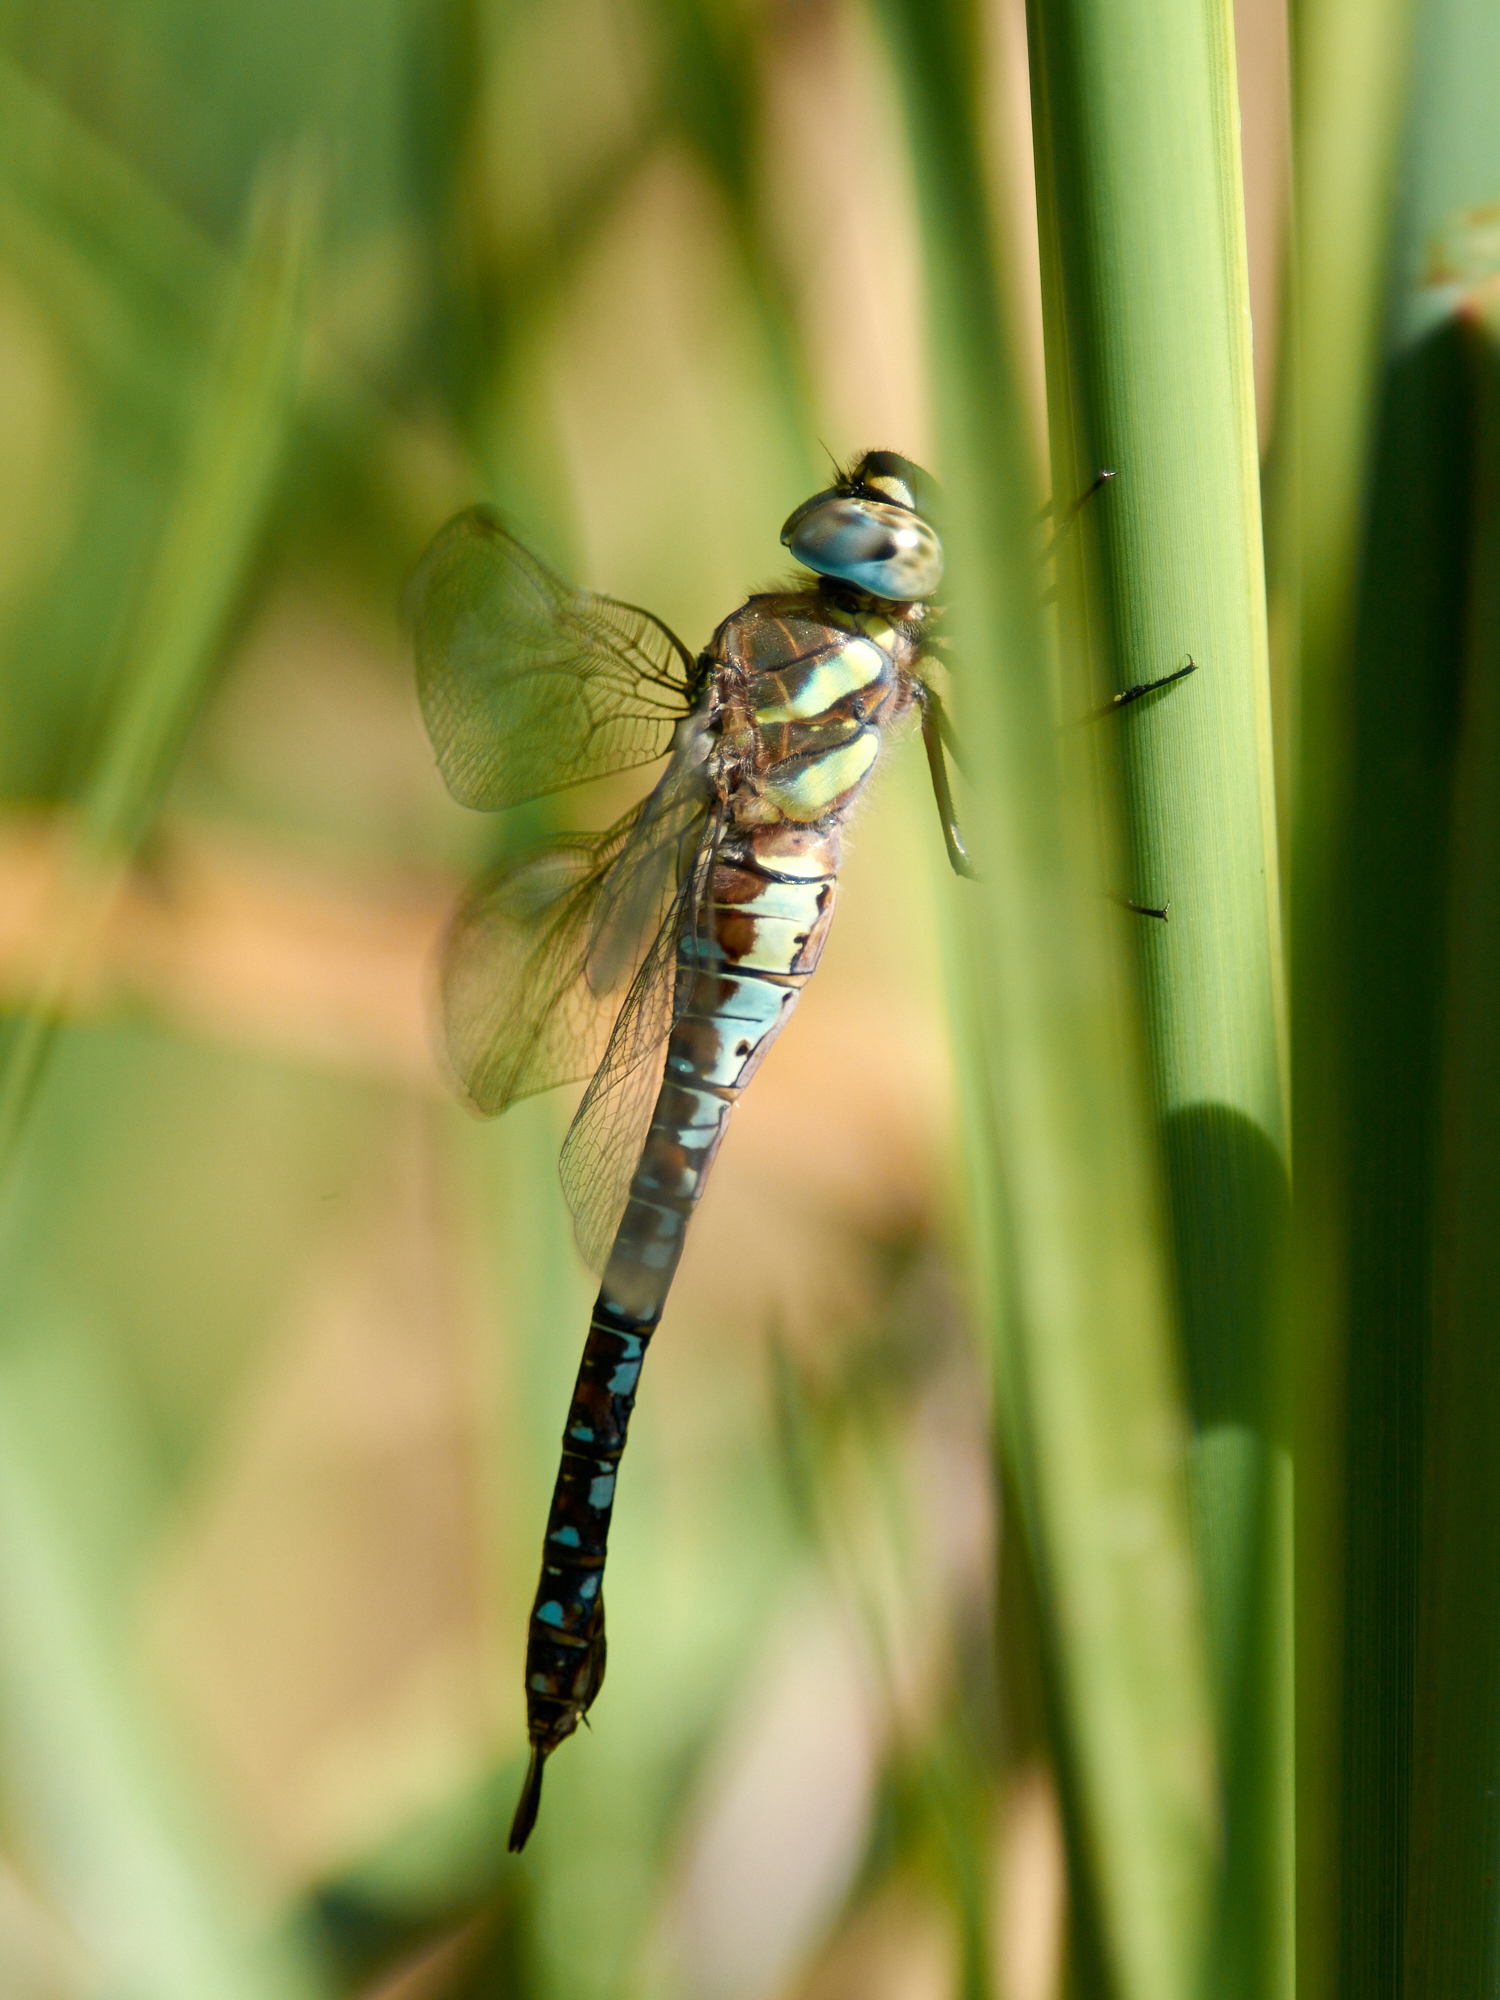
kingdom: Animalia
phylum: Arthropoda
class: Insecta
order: Odonata
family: Aeshnidae
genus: Aeshna
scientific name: Aeshna mixta
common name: Migrant hawker
